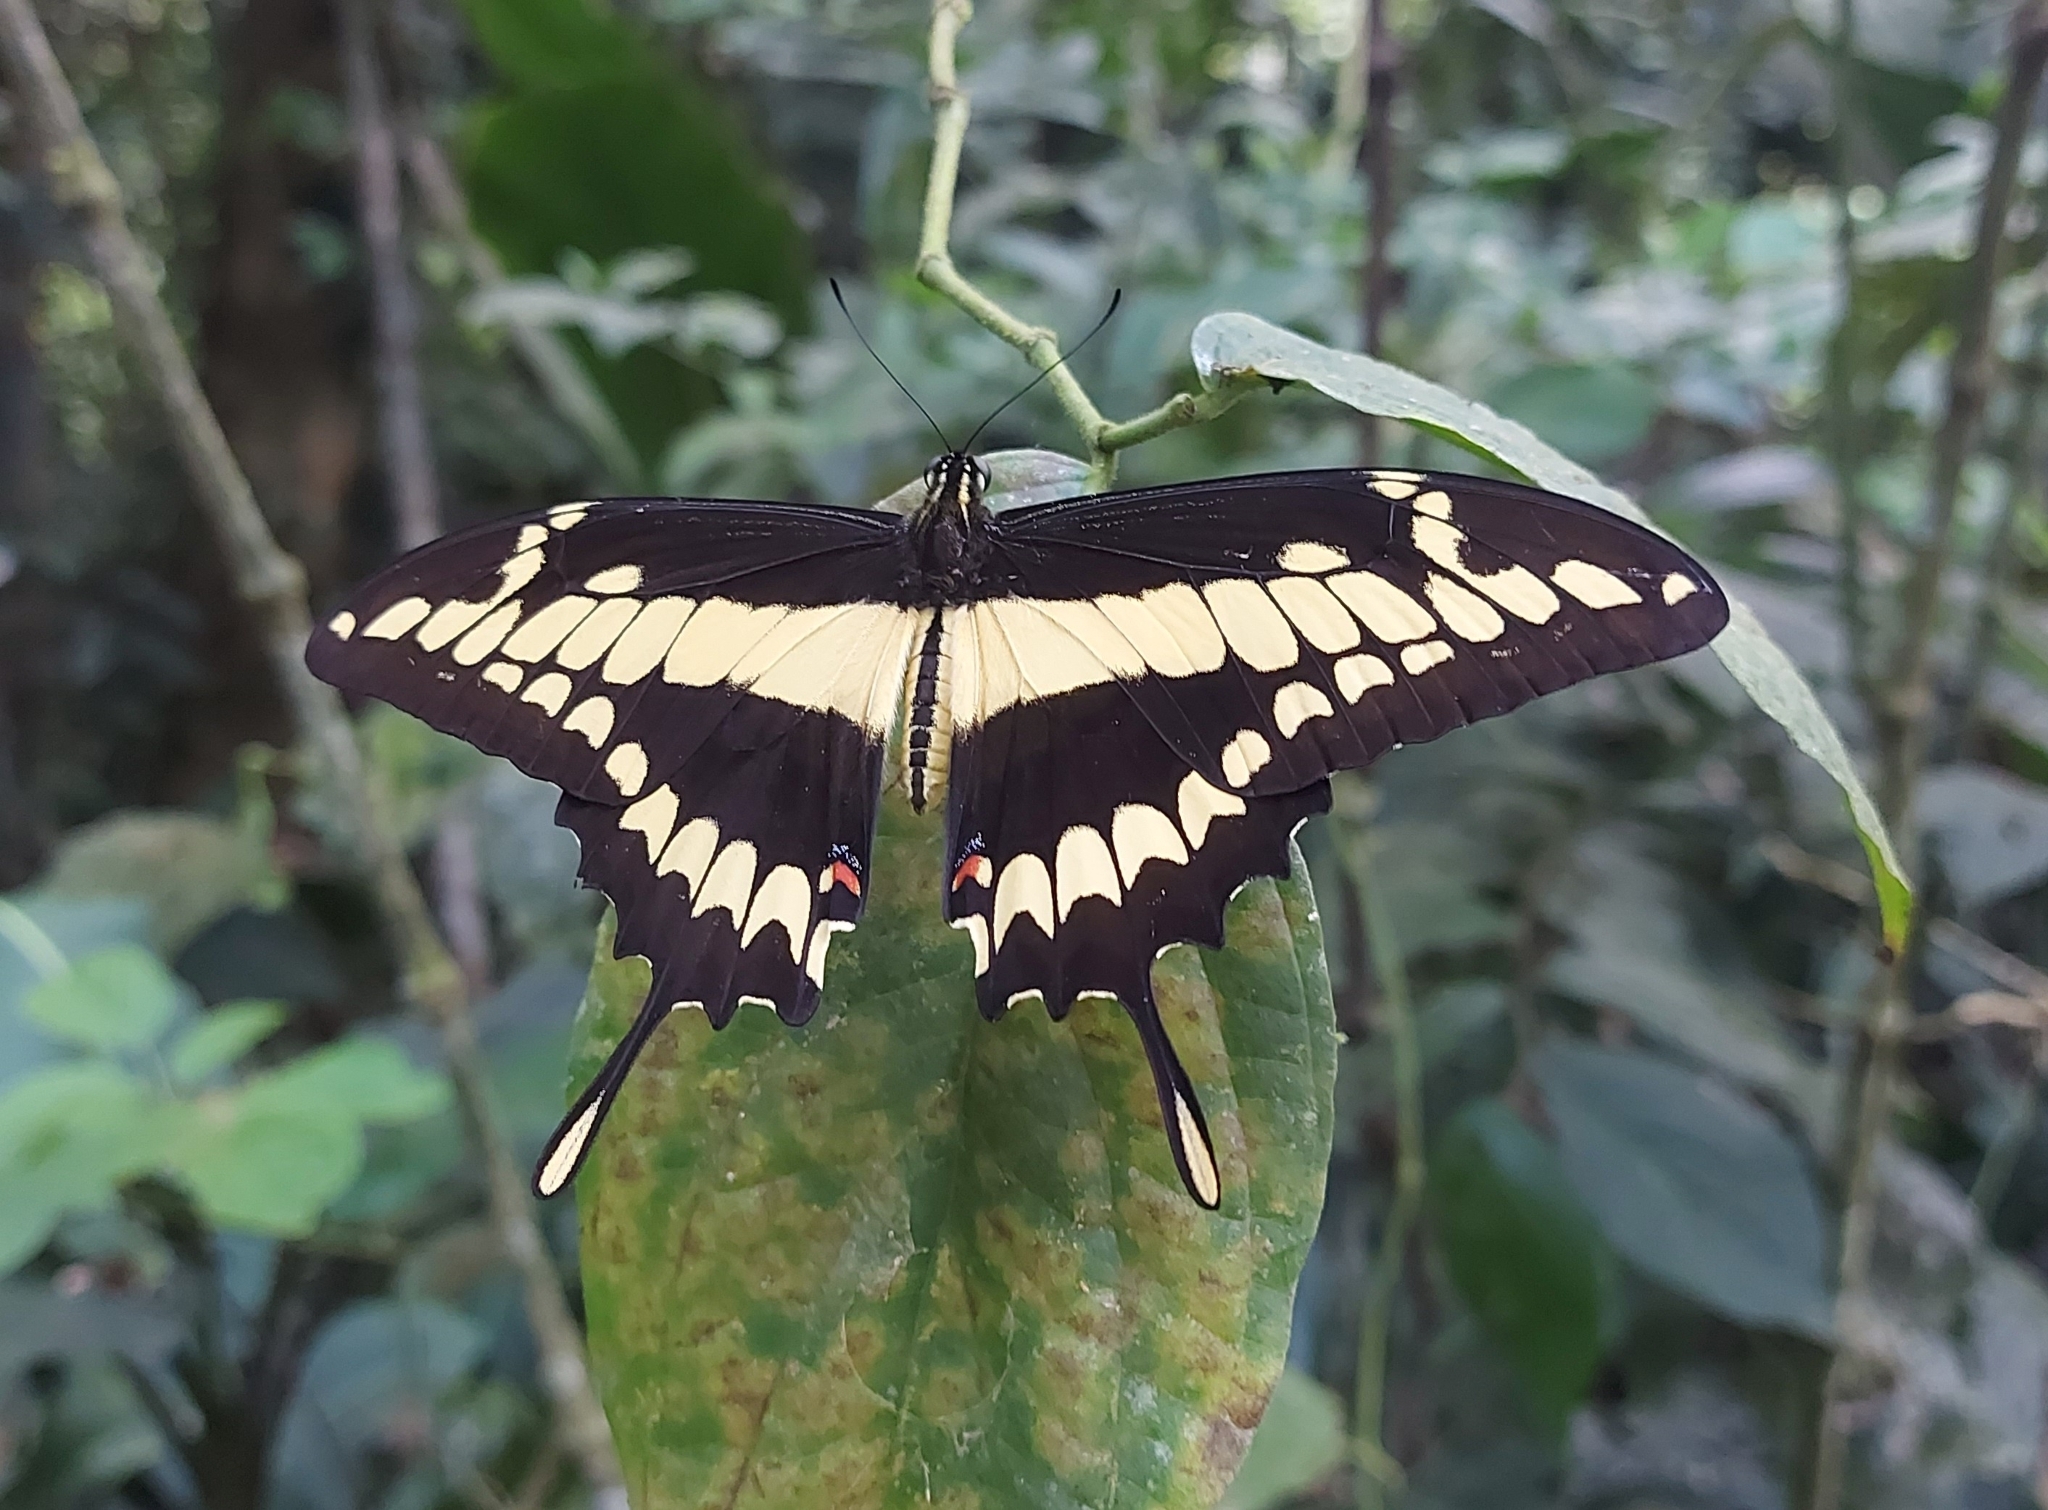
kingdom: Animalia
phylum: Arthropoda
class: Insecta
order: Lepidoptera
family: Papilionidae
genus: Papilio
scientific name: Papilio thoas
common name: King swallowtail
